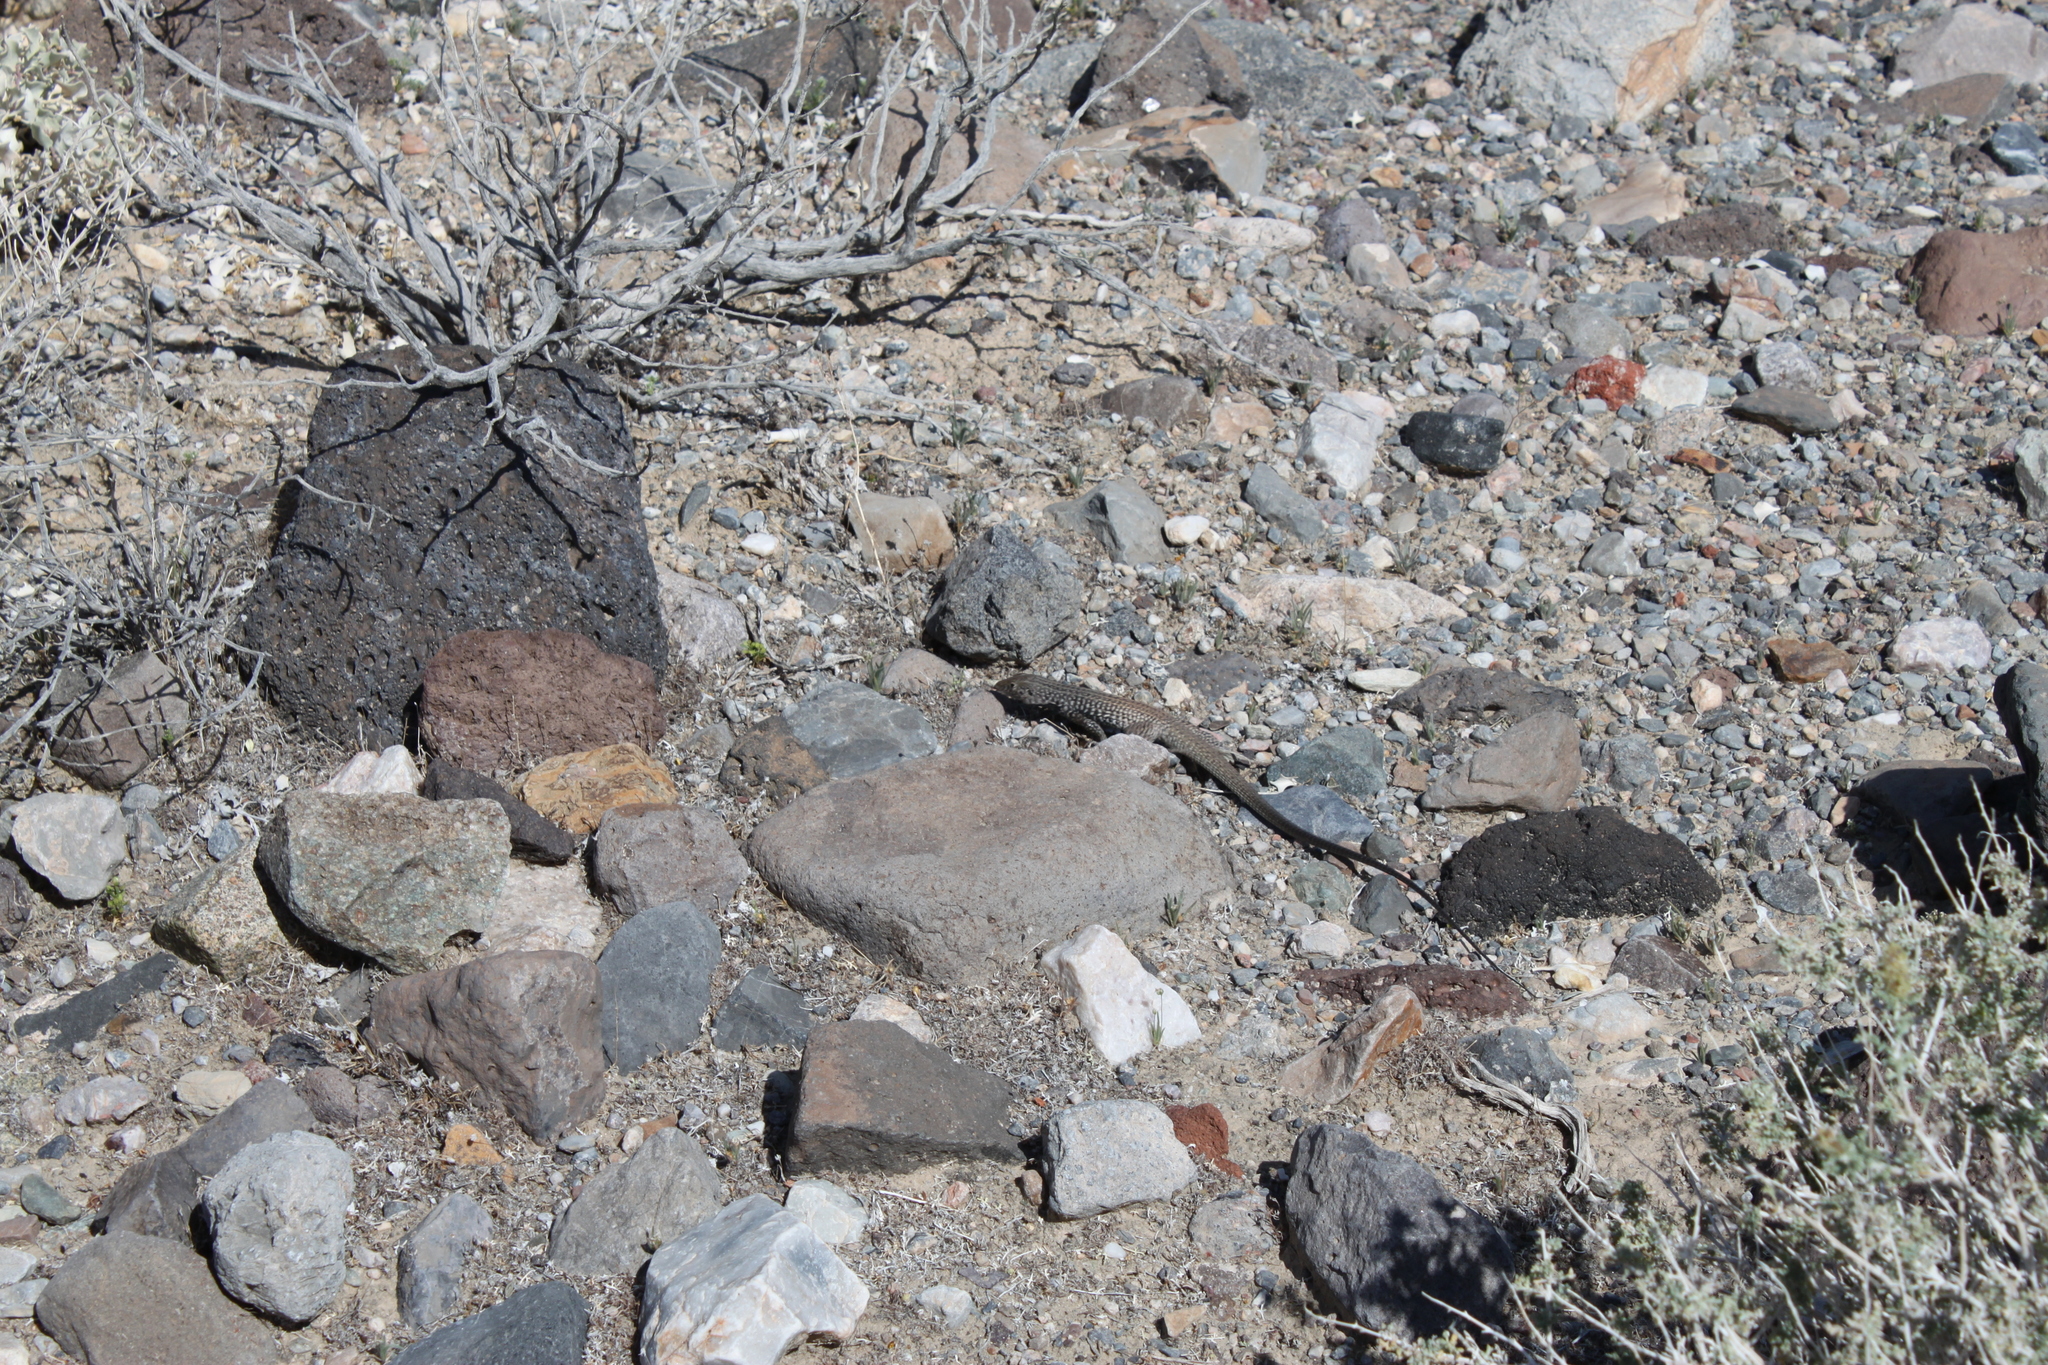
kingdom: Animalia
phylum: Chordata
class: Squamata
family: Teiidae
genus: Aspidoscelis
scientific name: Aspidoscelis tigris
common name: Tiger whiptail
